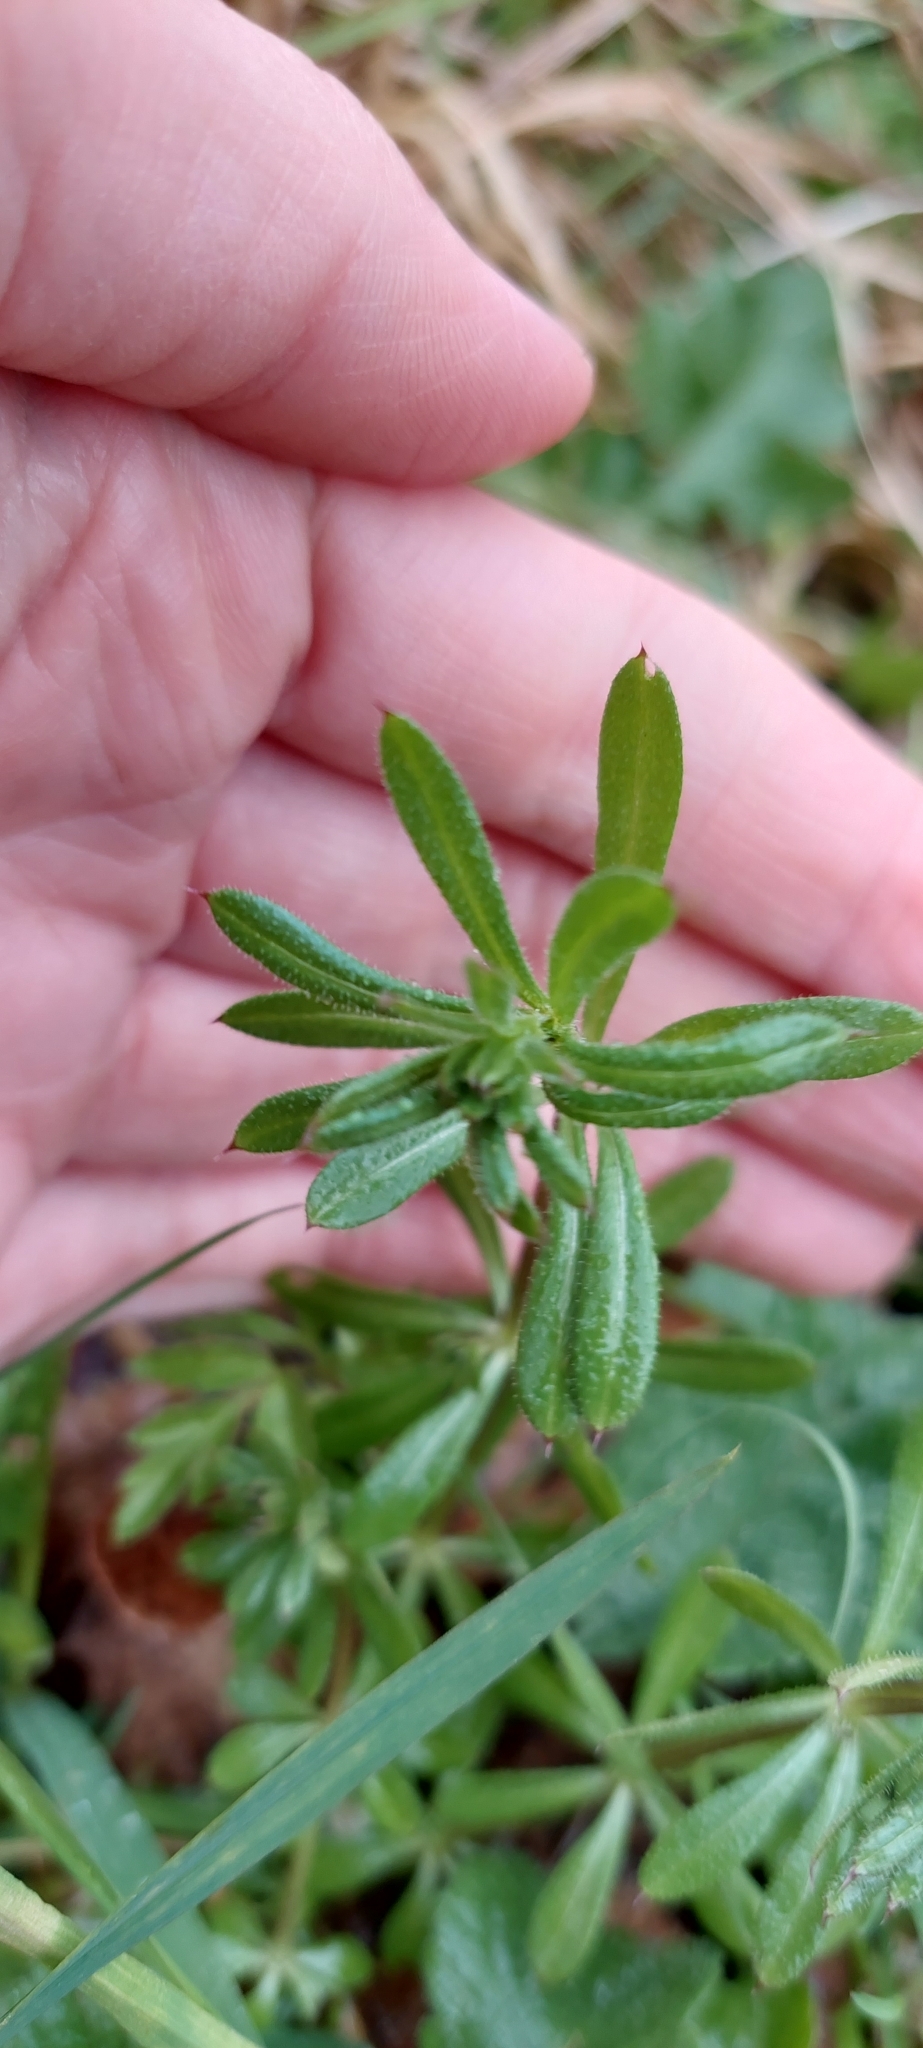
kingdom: Plantae
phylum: Tracheophyta
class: Magnoliopsida
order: Gentianales
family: Rubiaceae
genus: Galium
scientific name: Galium aparine
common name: Cleavers
